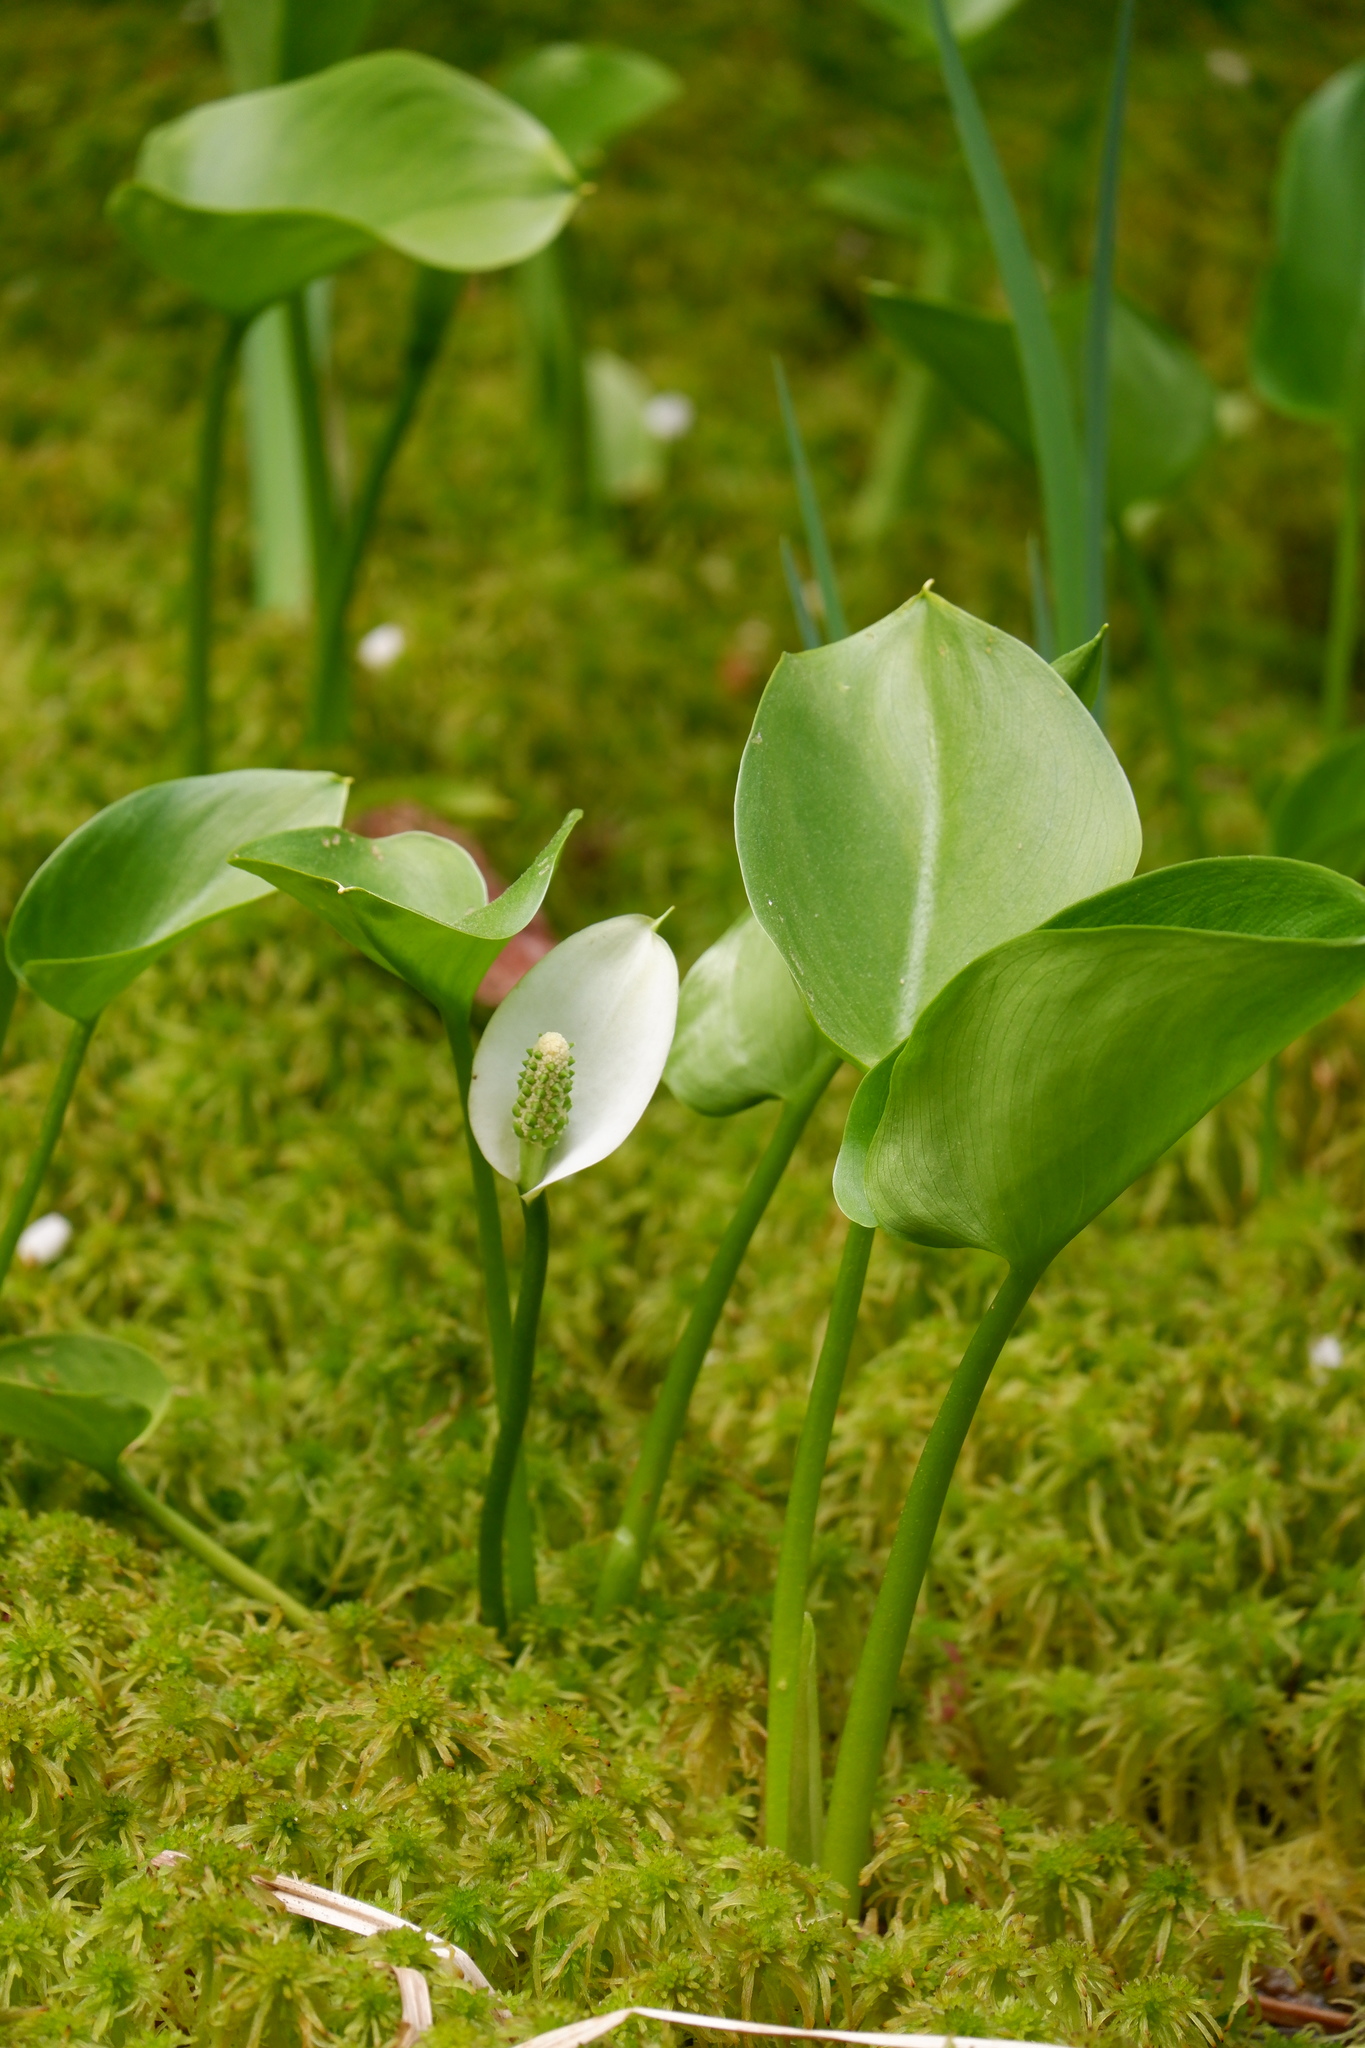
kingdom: Plantae
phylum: Tracheophyta
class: Liliopsida
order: Alismatales
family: Araceae
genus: Calla
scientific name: Calla palustris
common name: Bog arum
